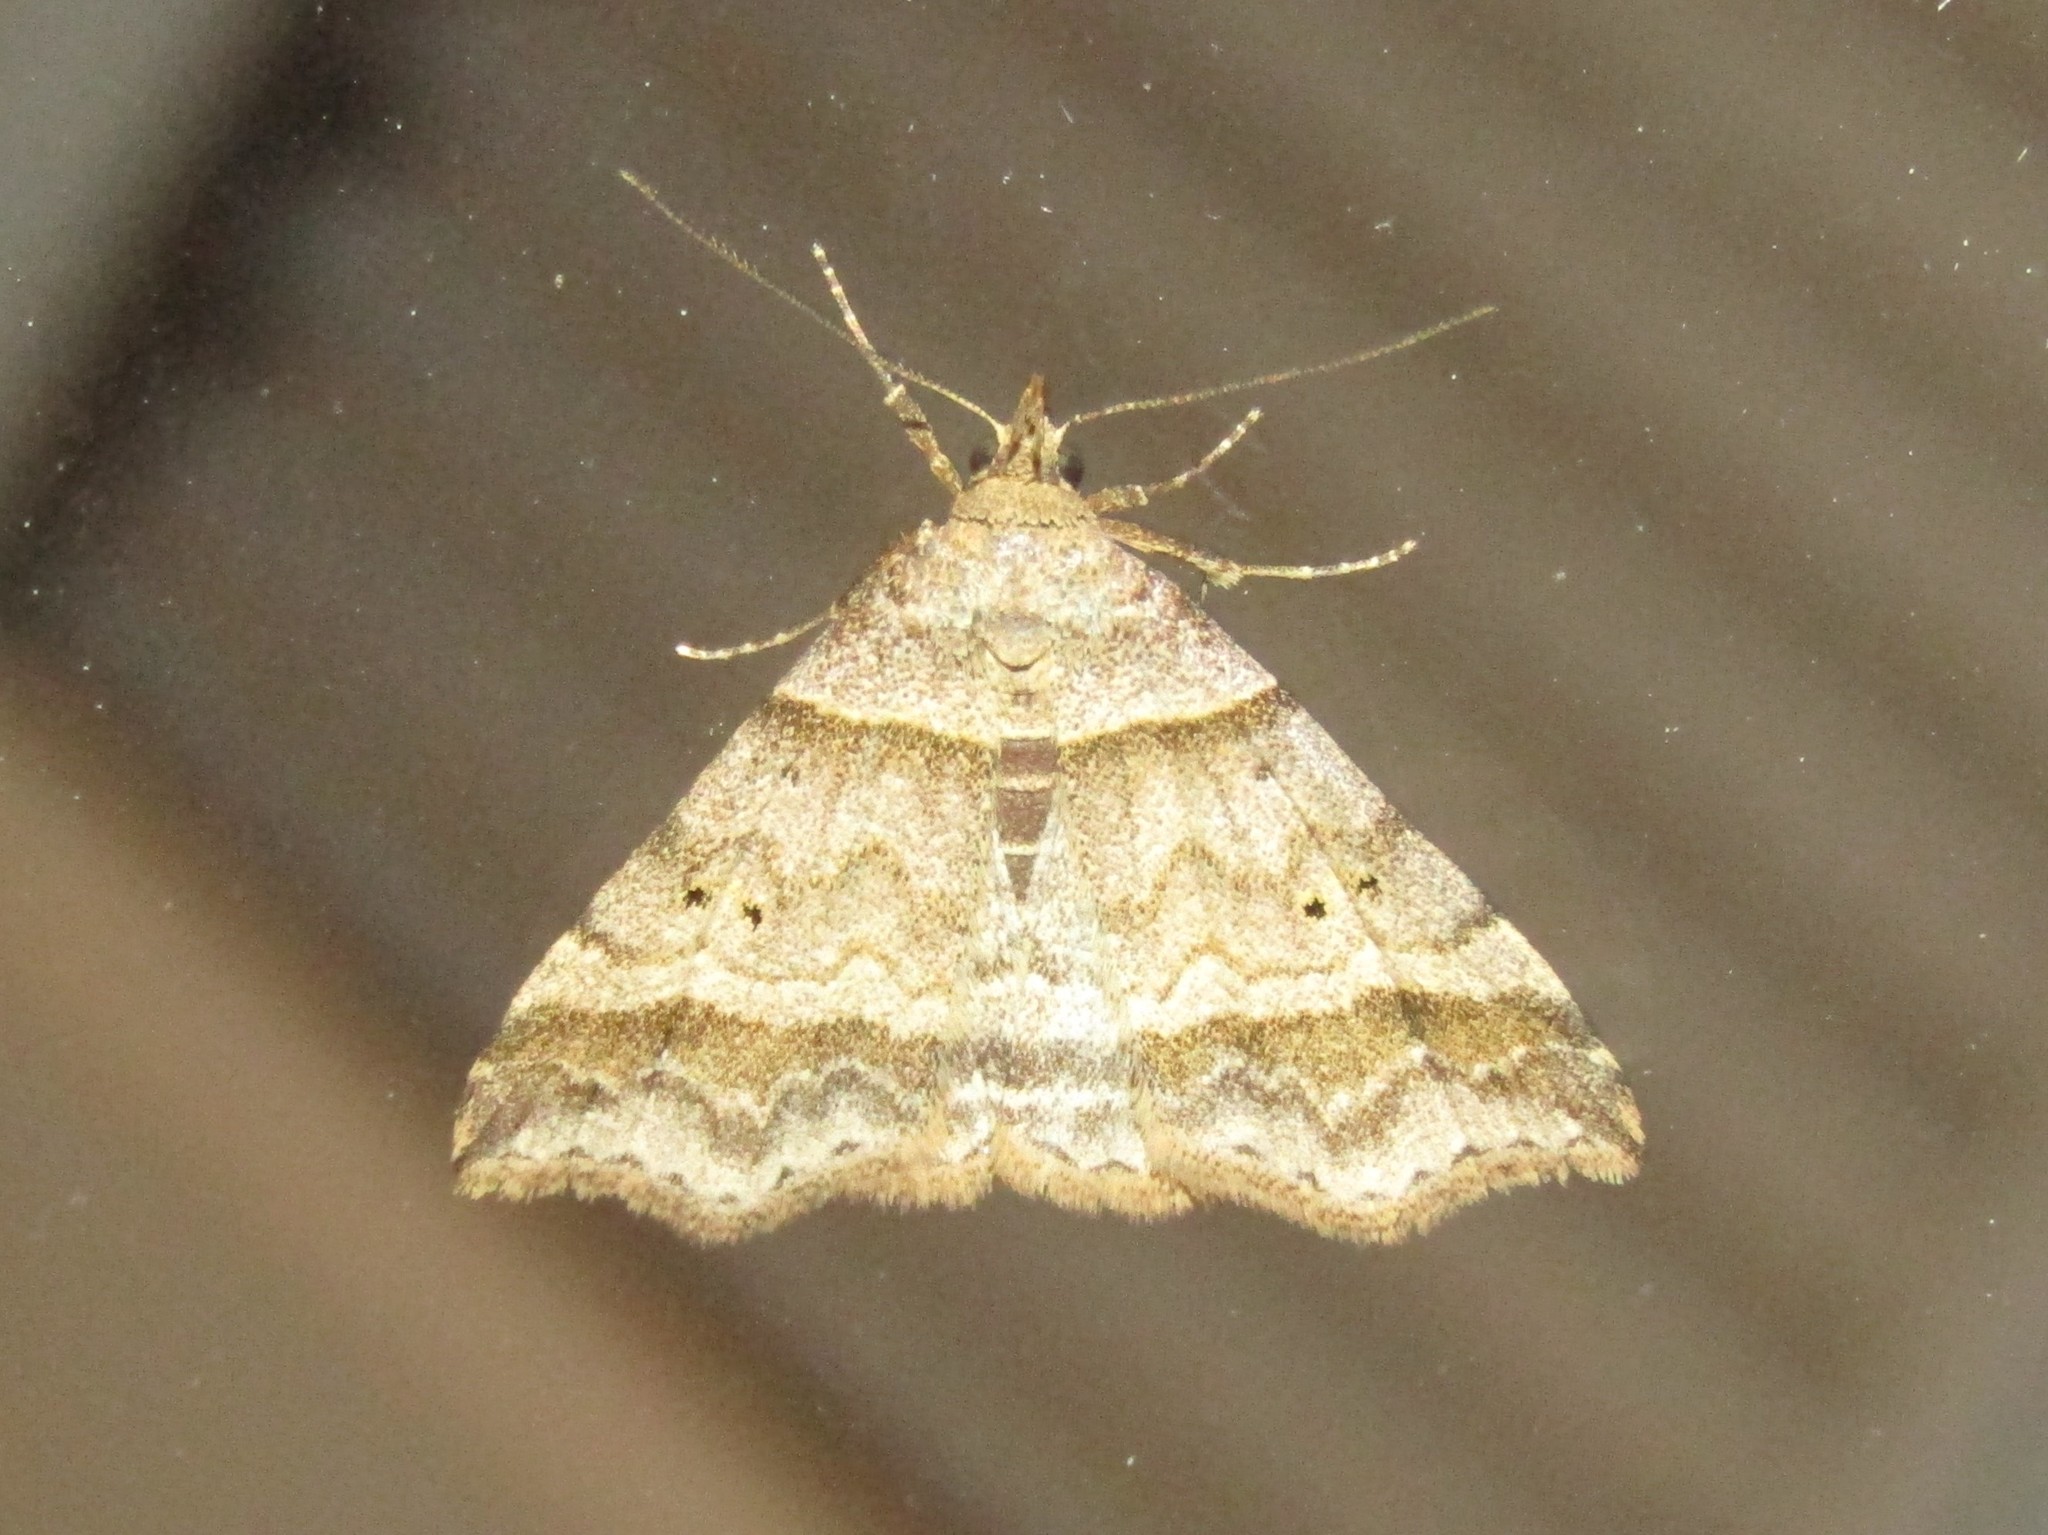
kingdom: Animalia
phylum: Arthropoda
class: Insecta
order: Lepidoptera
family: Erebidae
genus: Phaeolita
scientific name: Phaeolita pyramusalis
